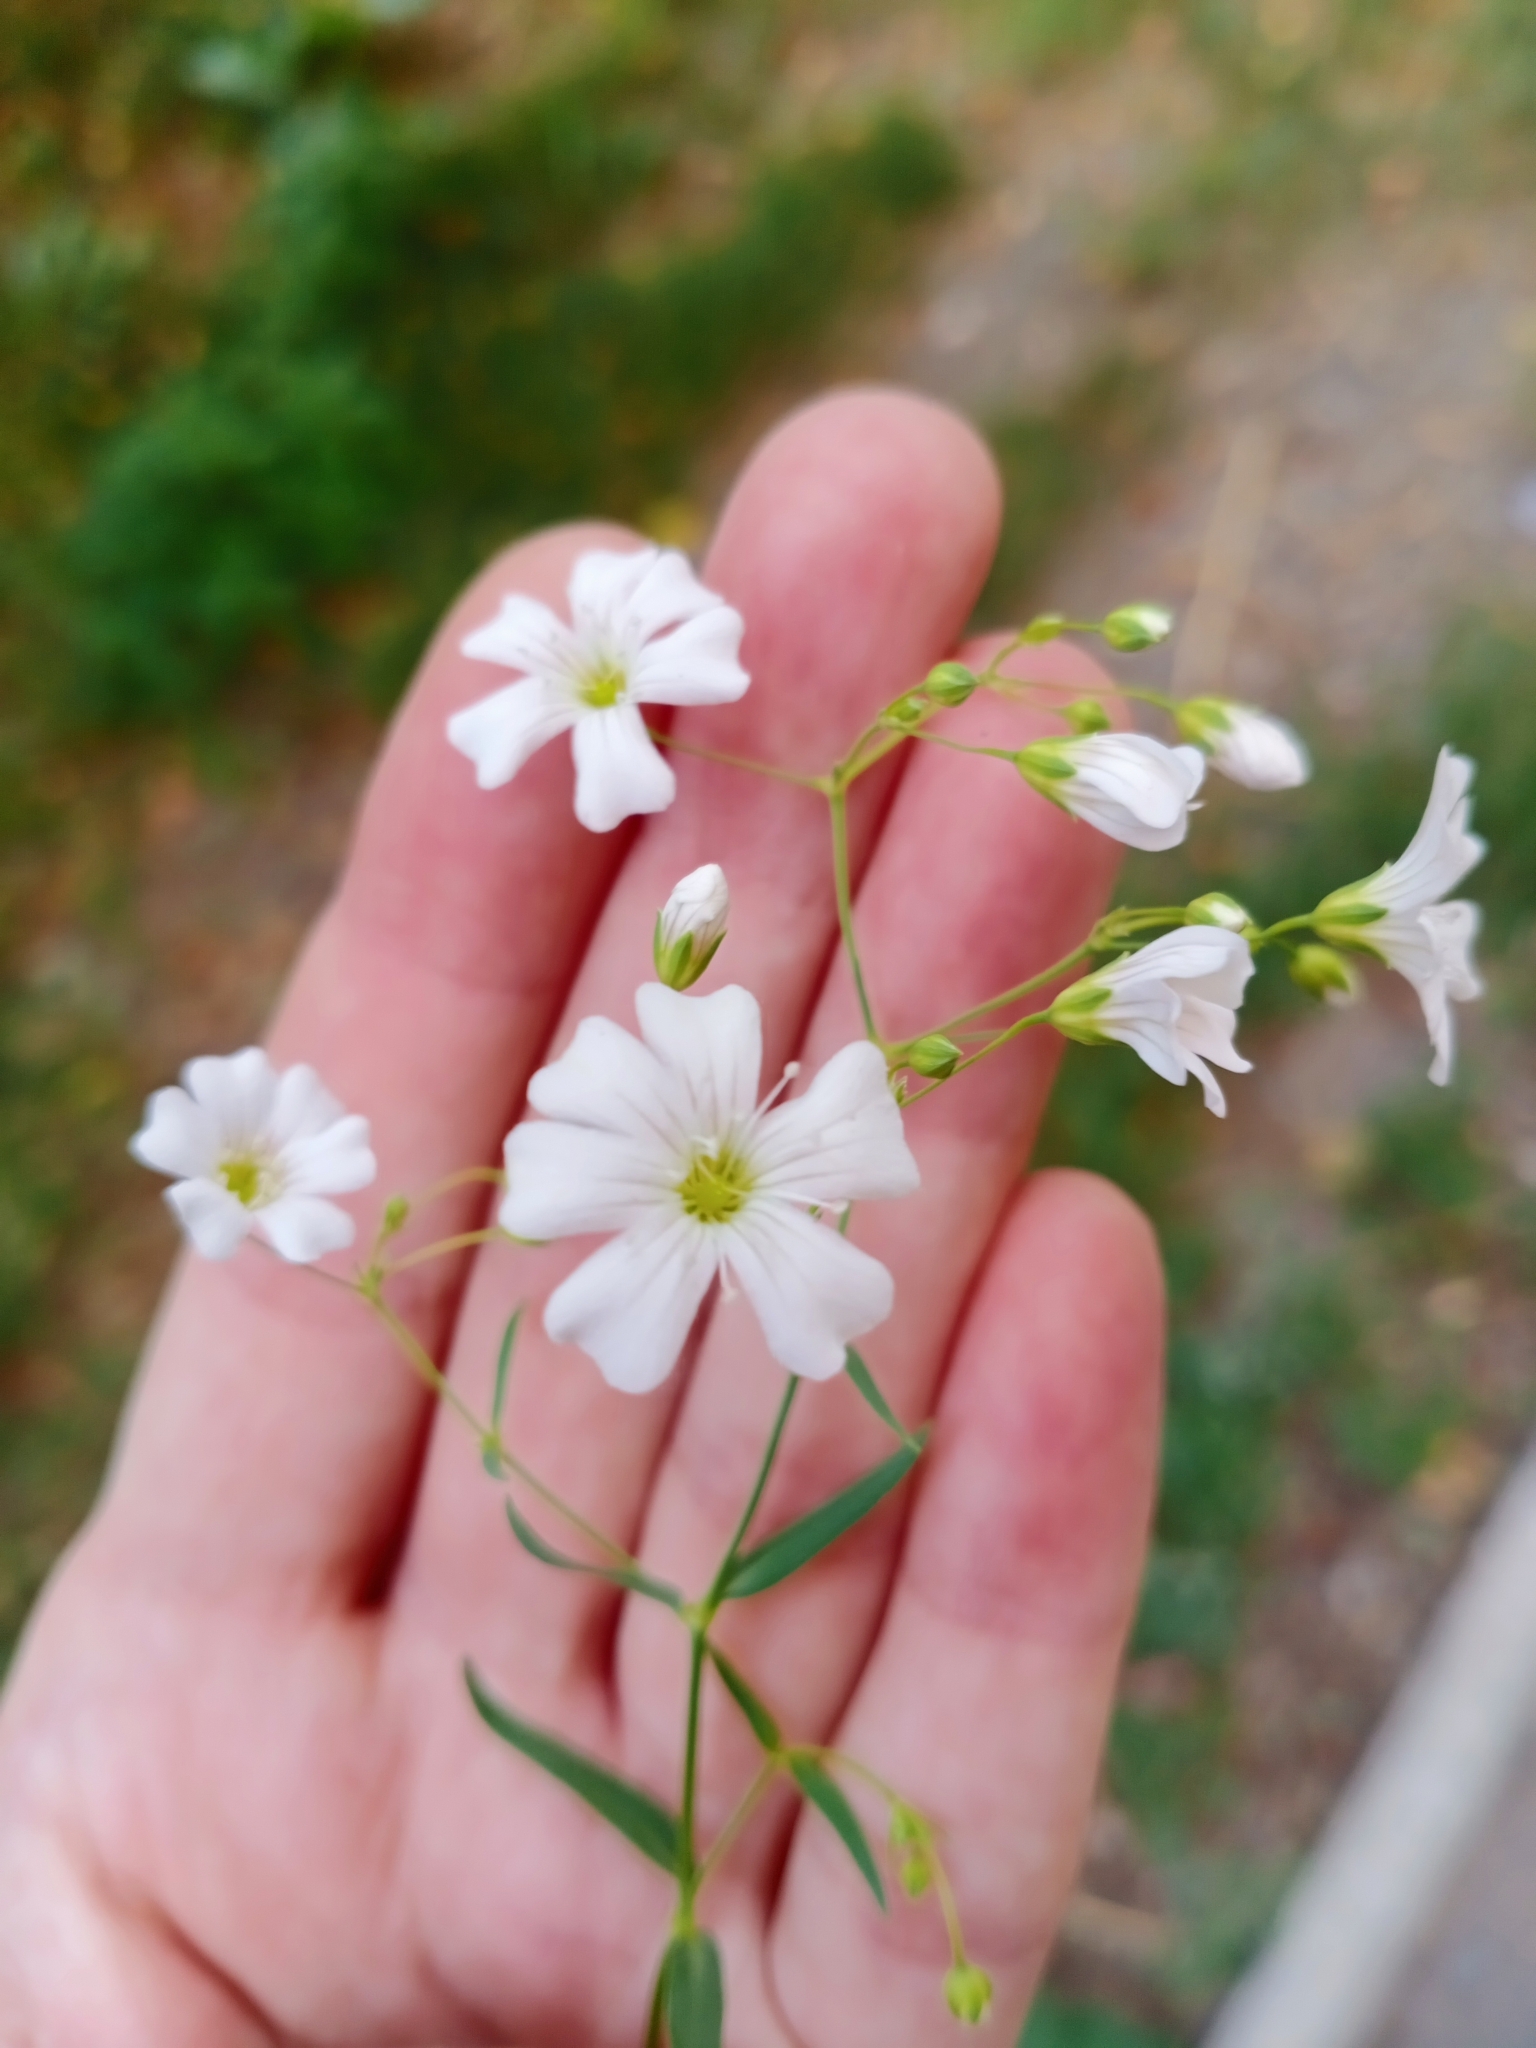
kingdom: Plantae
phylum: Tracheophyta
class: Magnoliopsida
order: Caryophyllales
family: Caryophyllaceae
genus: Gypsophila
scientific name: Gypsophila elegans
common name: Showy baby's-breath
